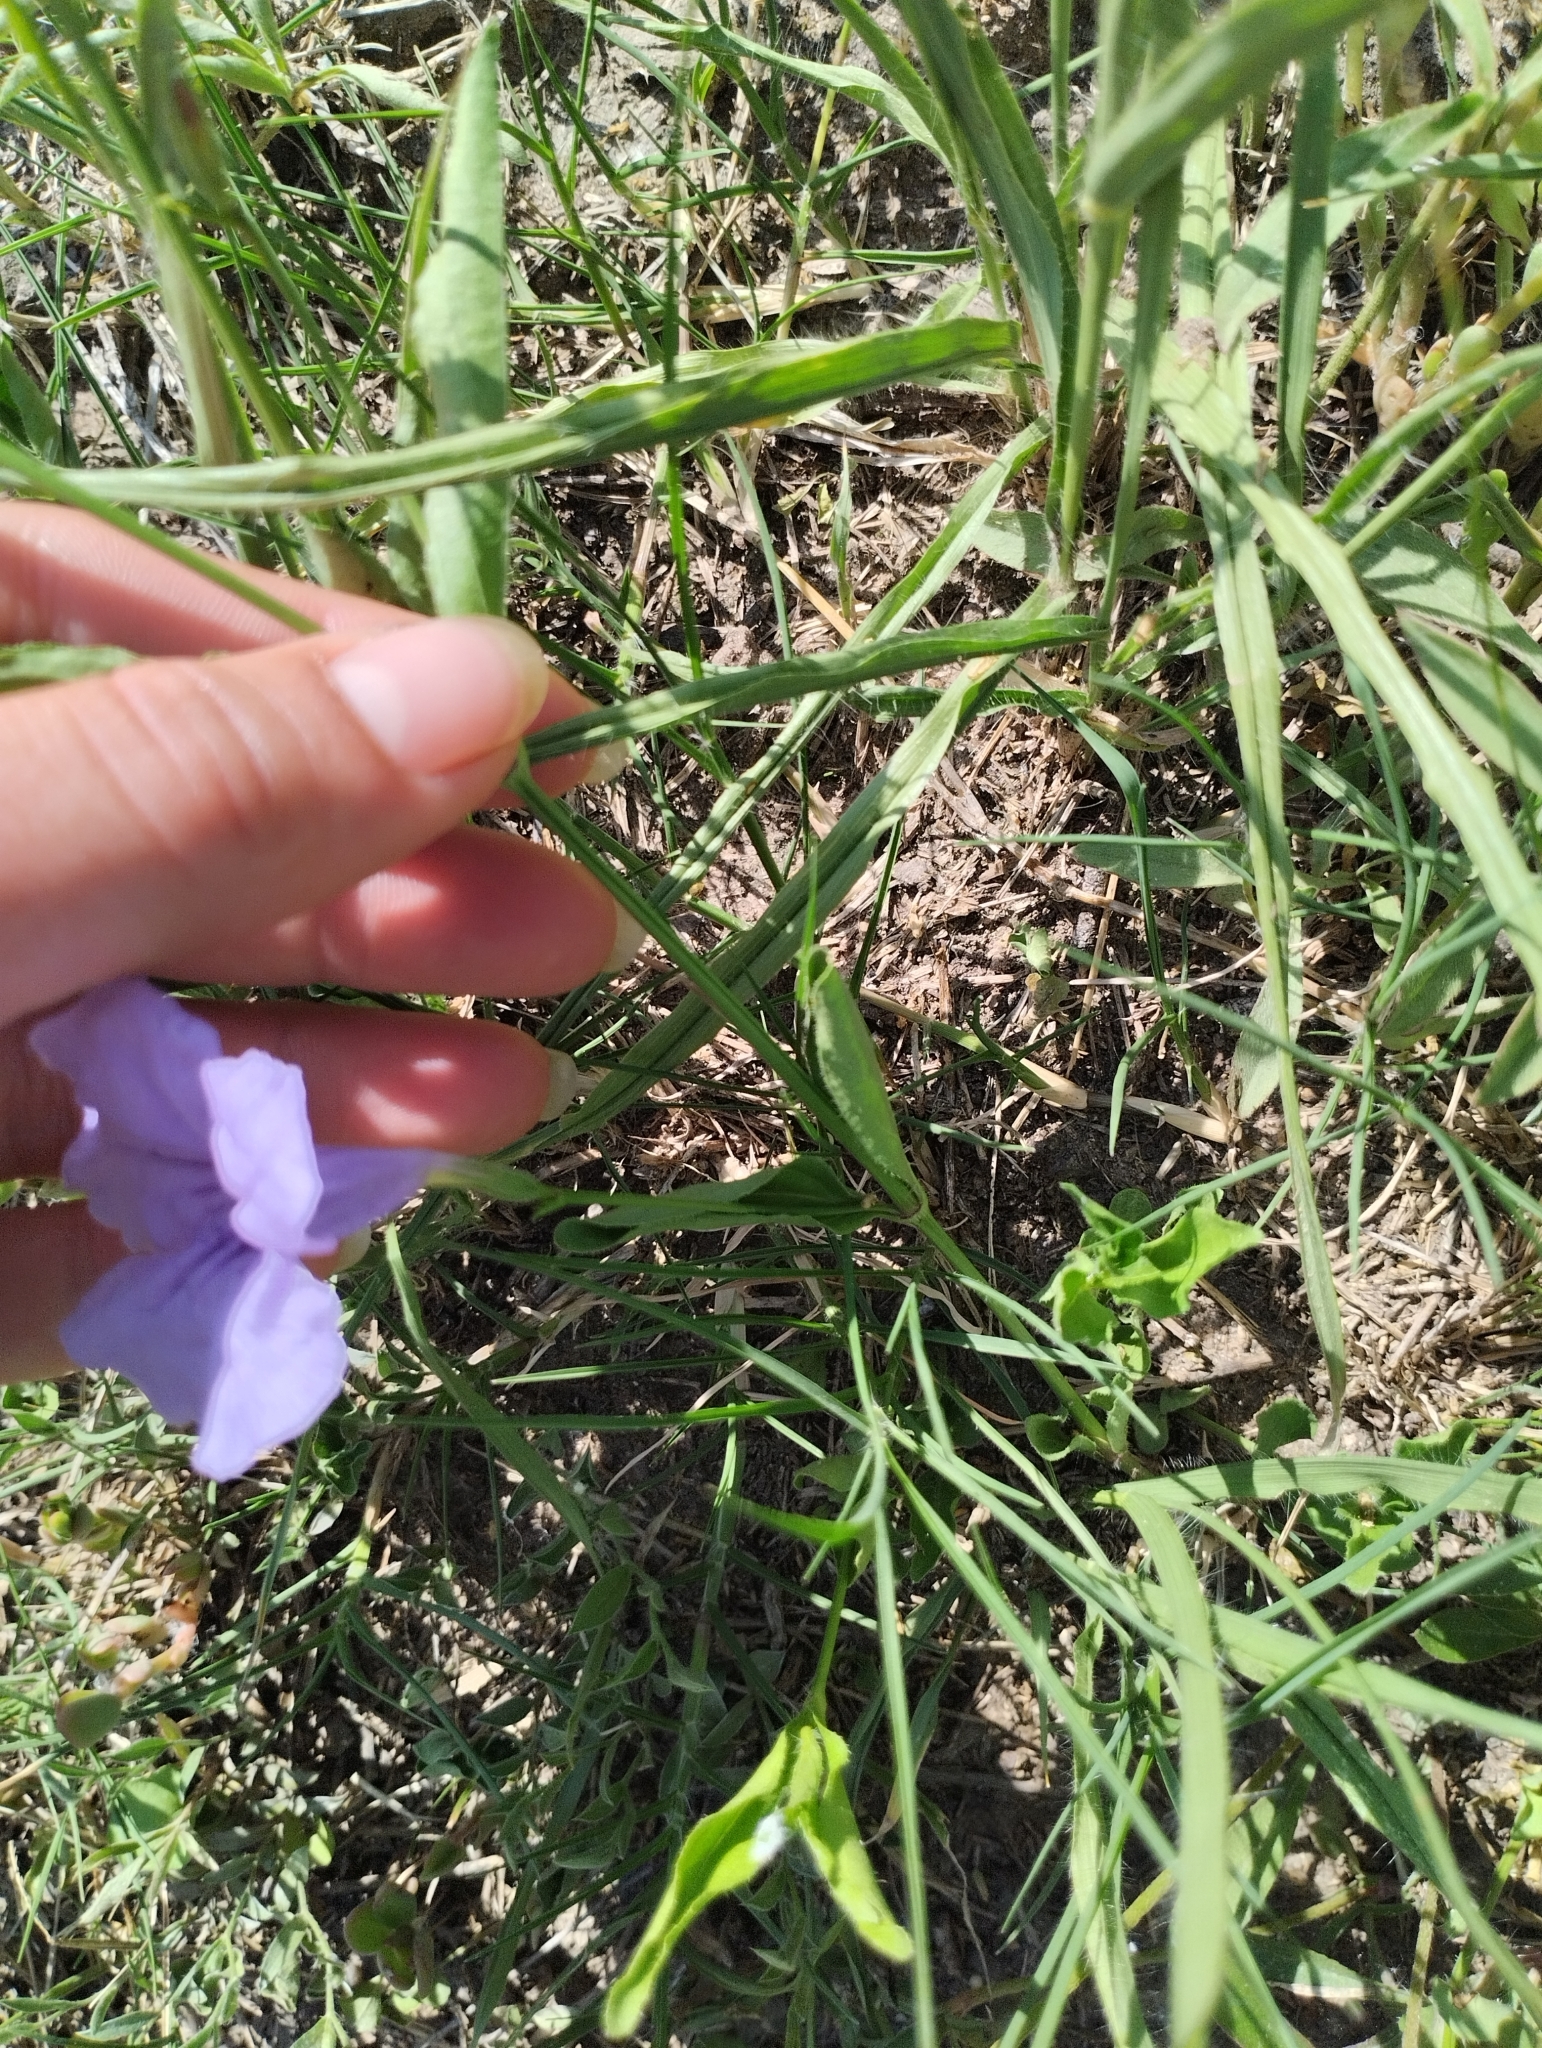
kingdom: Plantae
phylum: Tracheophyta
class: Magnoliopsida
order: Lamiales
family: Acanthaceae
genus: Ruellia
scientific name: Ruellia simplex
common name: Softseed wild petunia
